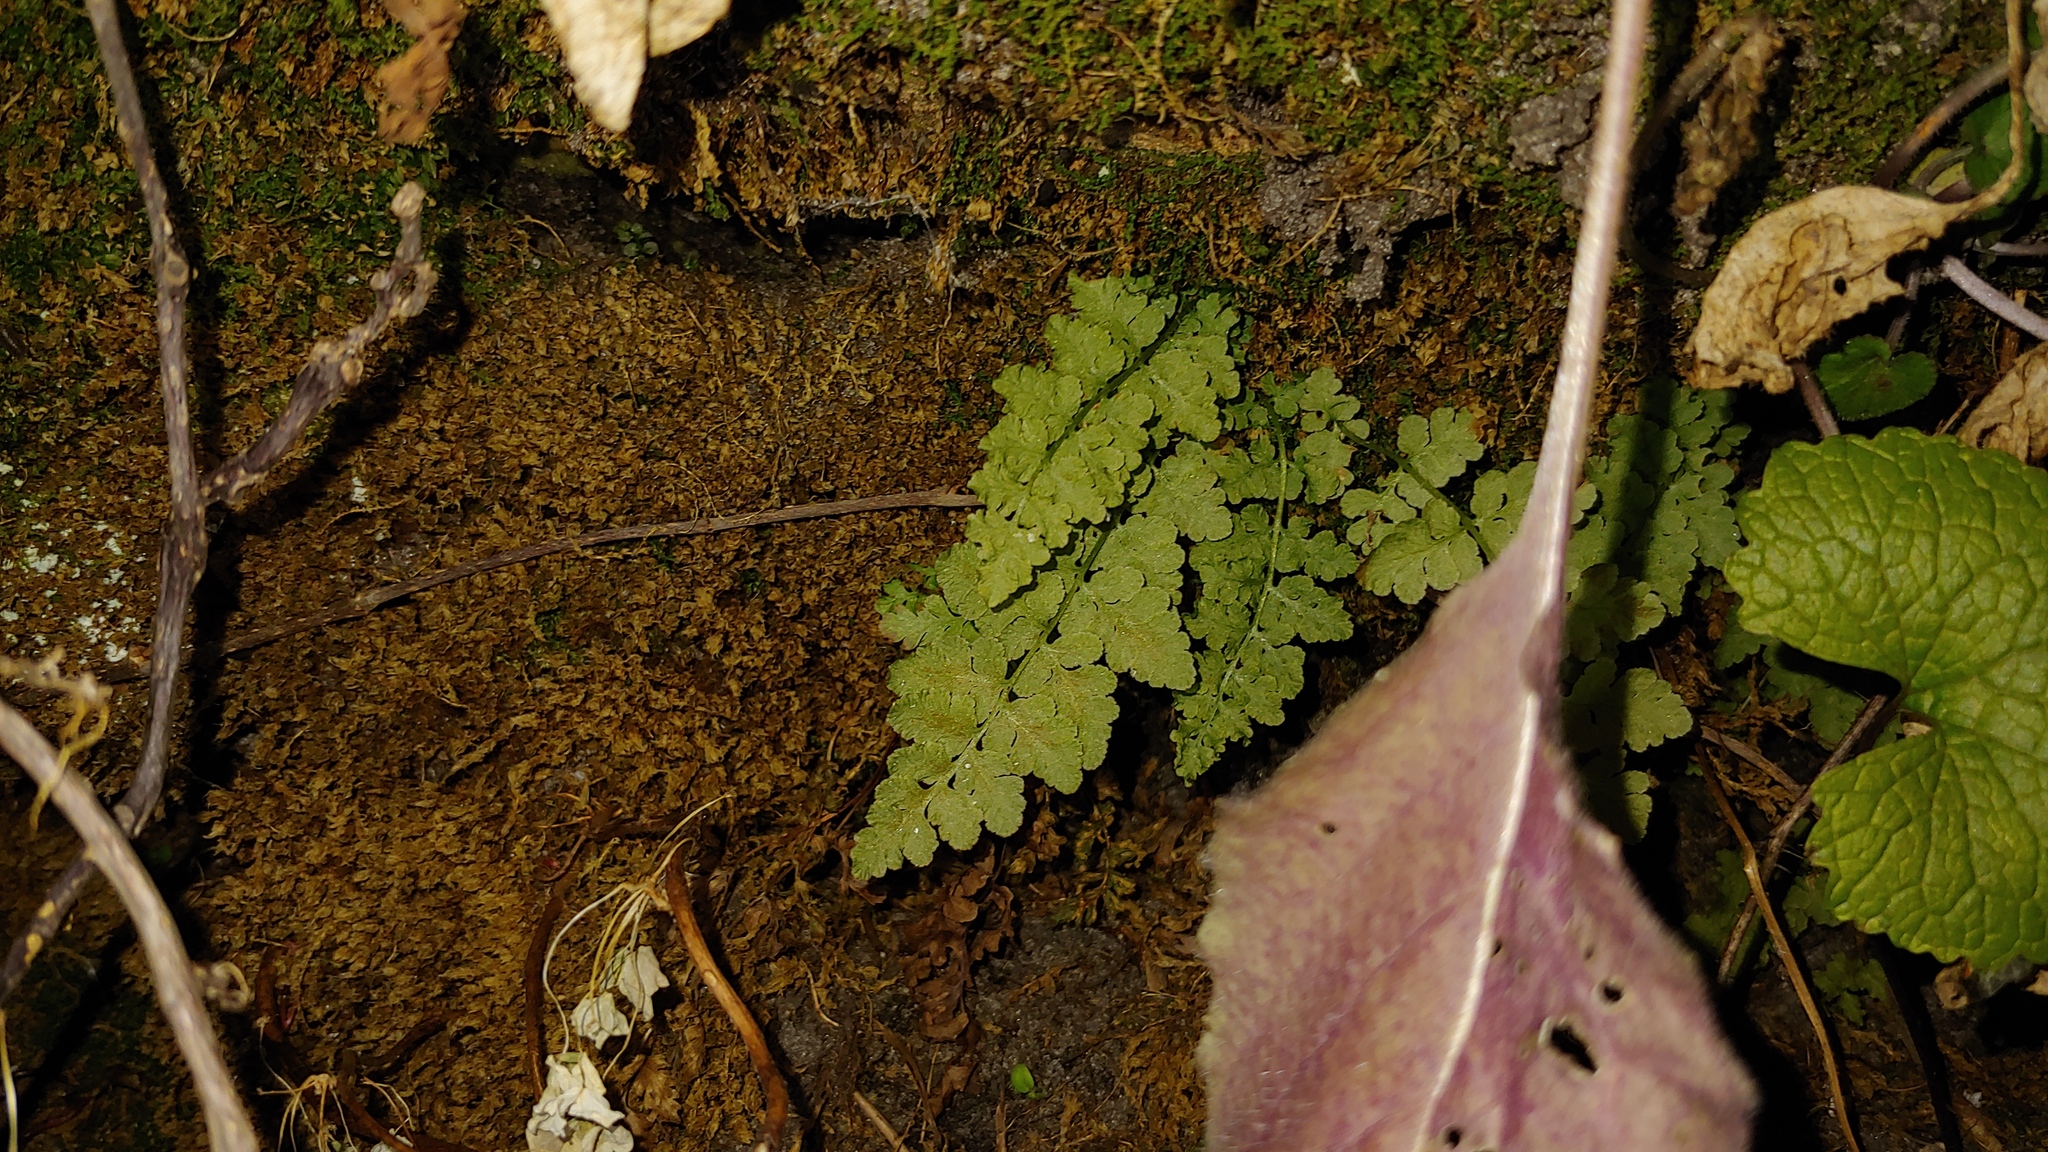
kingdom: Plantae
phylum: Tracheophyta
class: Polypodiopsida
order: Polypodiales
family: Woodsiaceae
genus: Physematium
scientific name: Physematium obtusum
